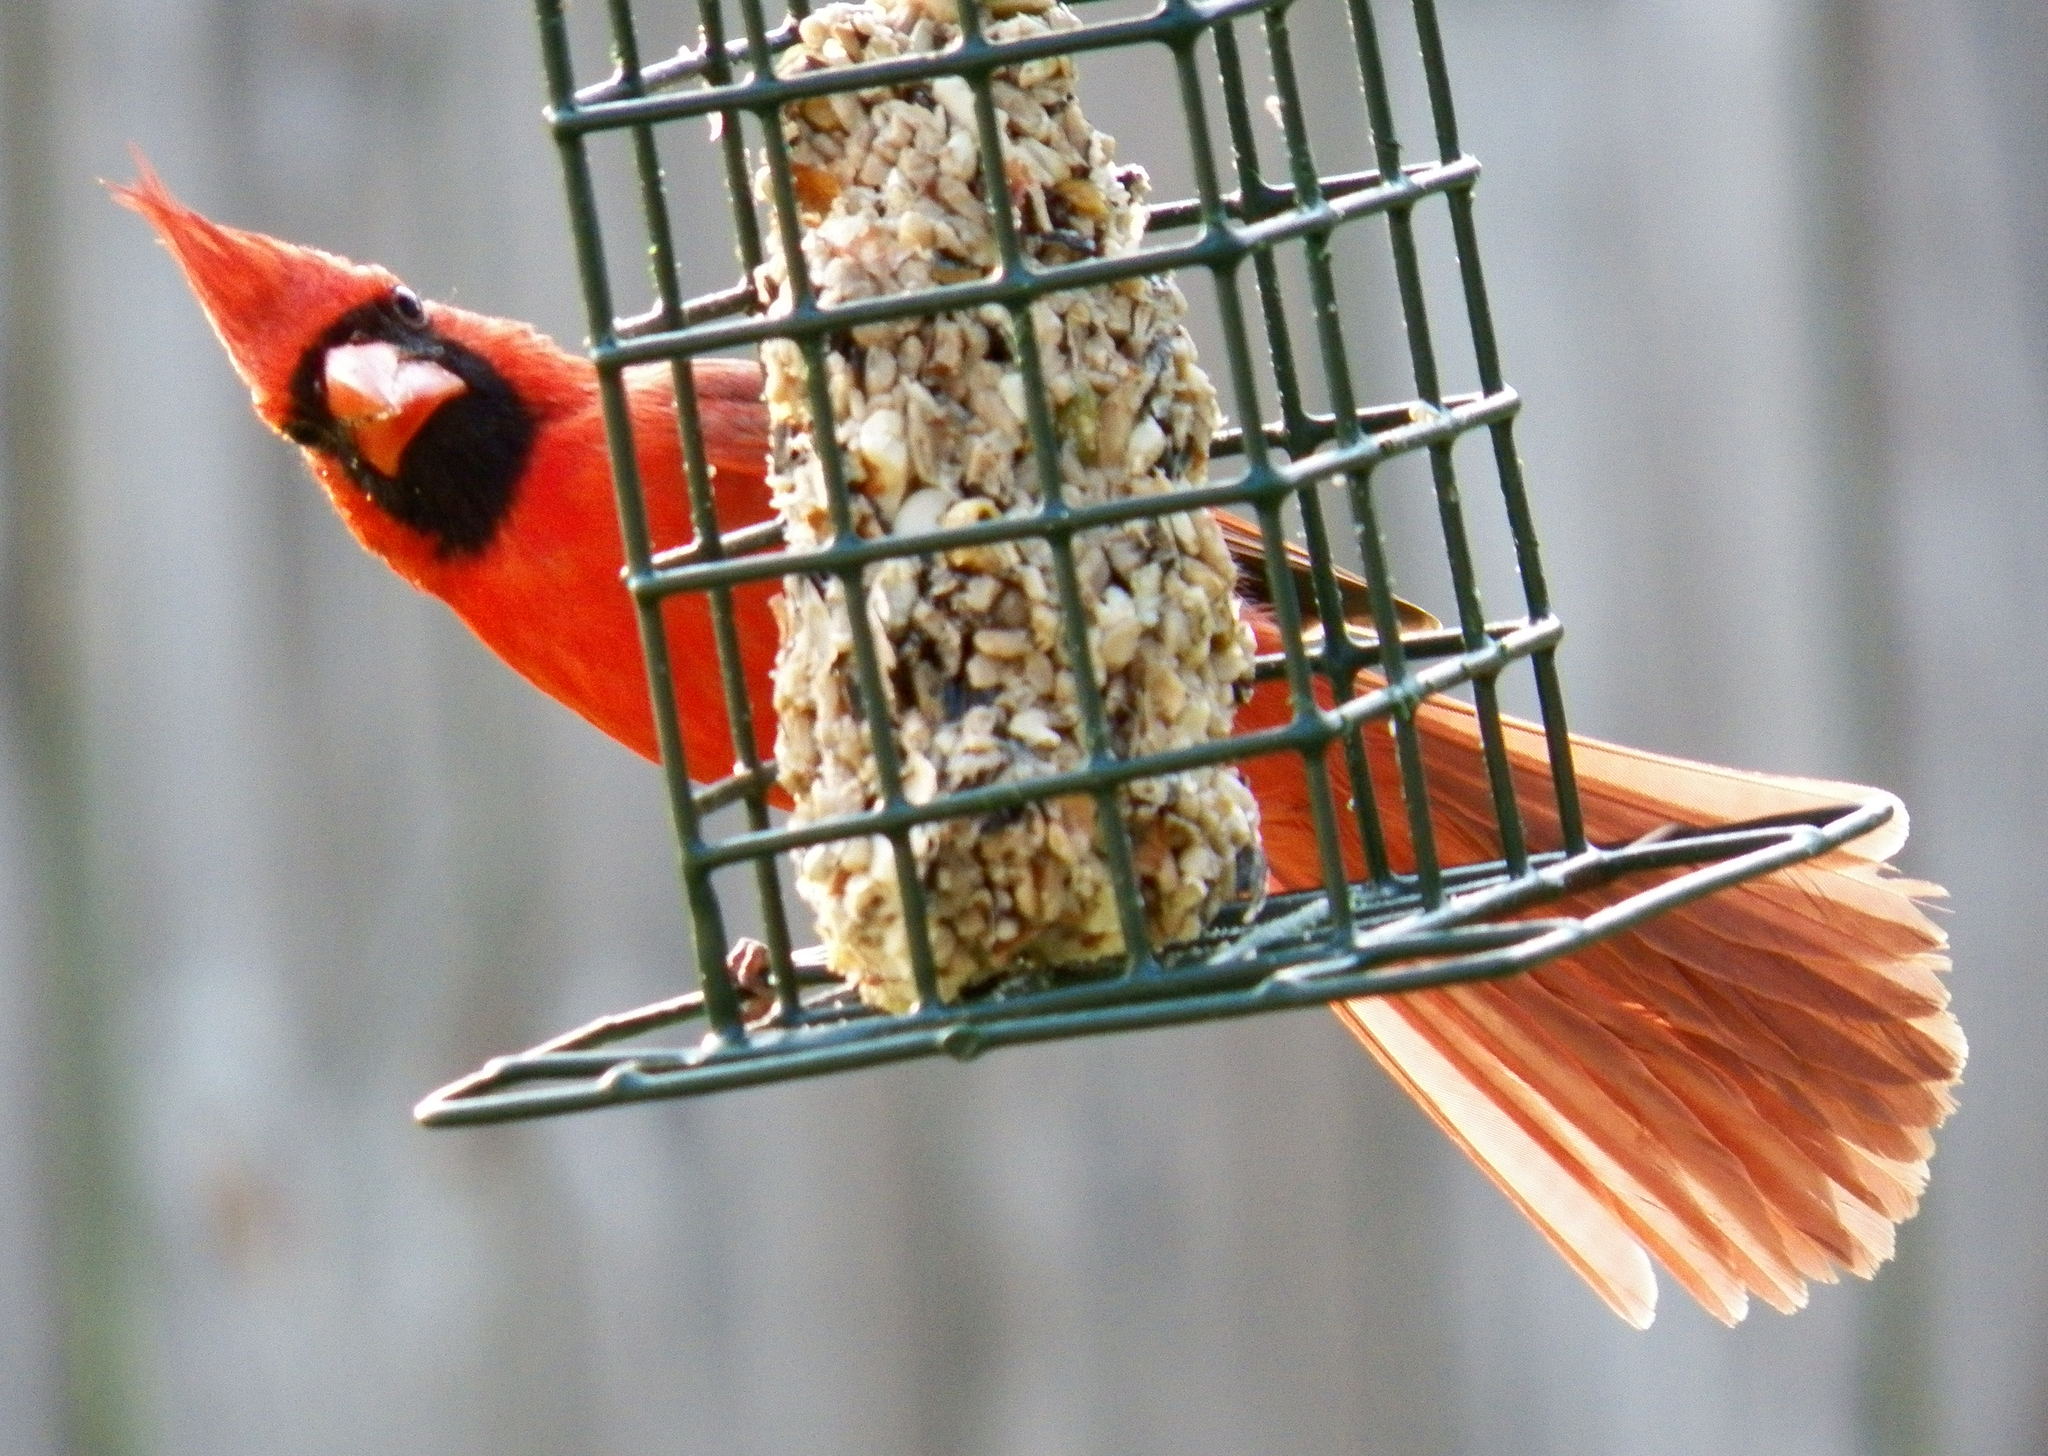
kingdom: Animalia
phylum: Chordata
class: Aves
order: Passeriformes
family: Cardinalidae
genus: Cardinalis
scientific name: Cardinalis cardinalis
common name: Northern cardinal
